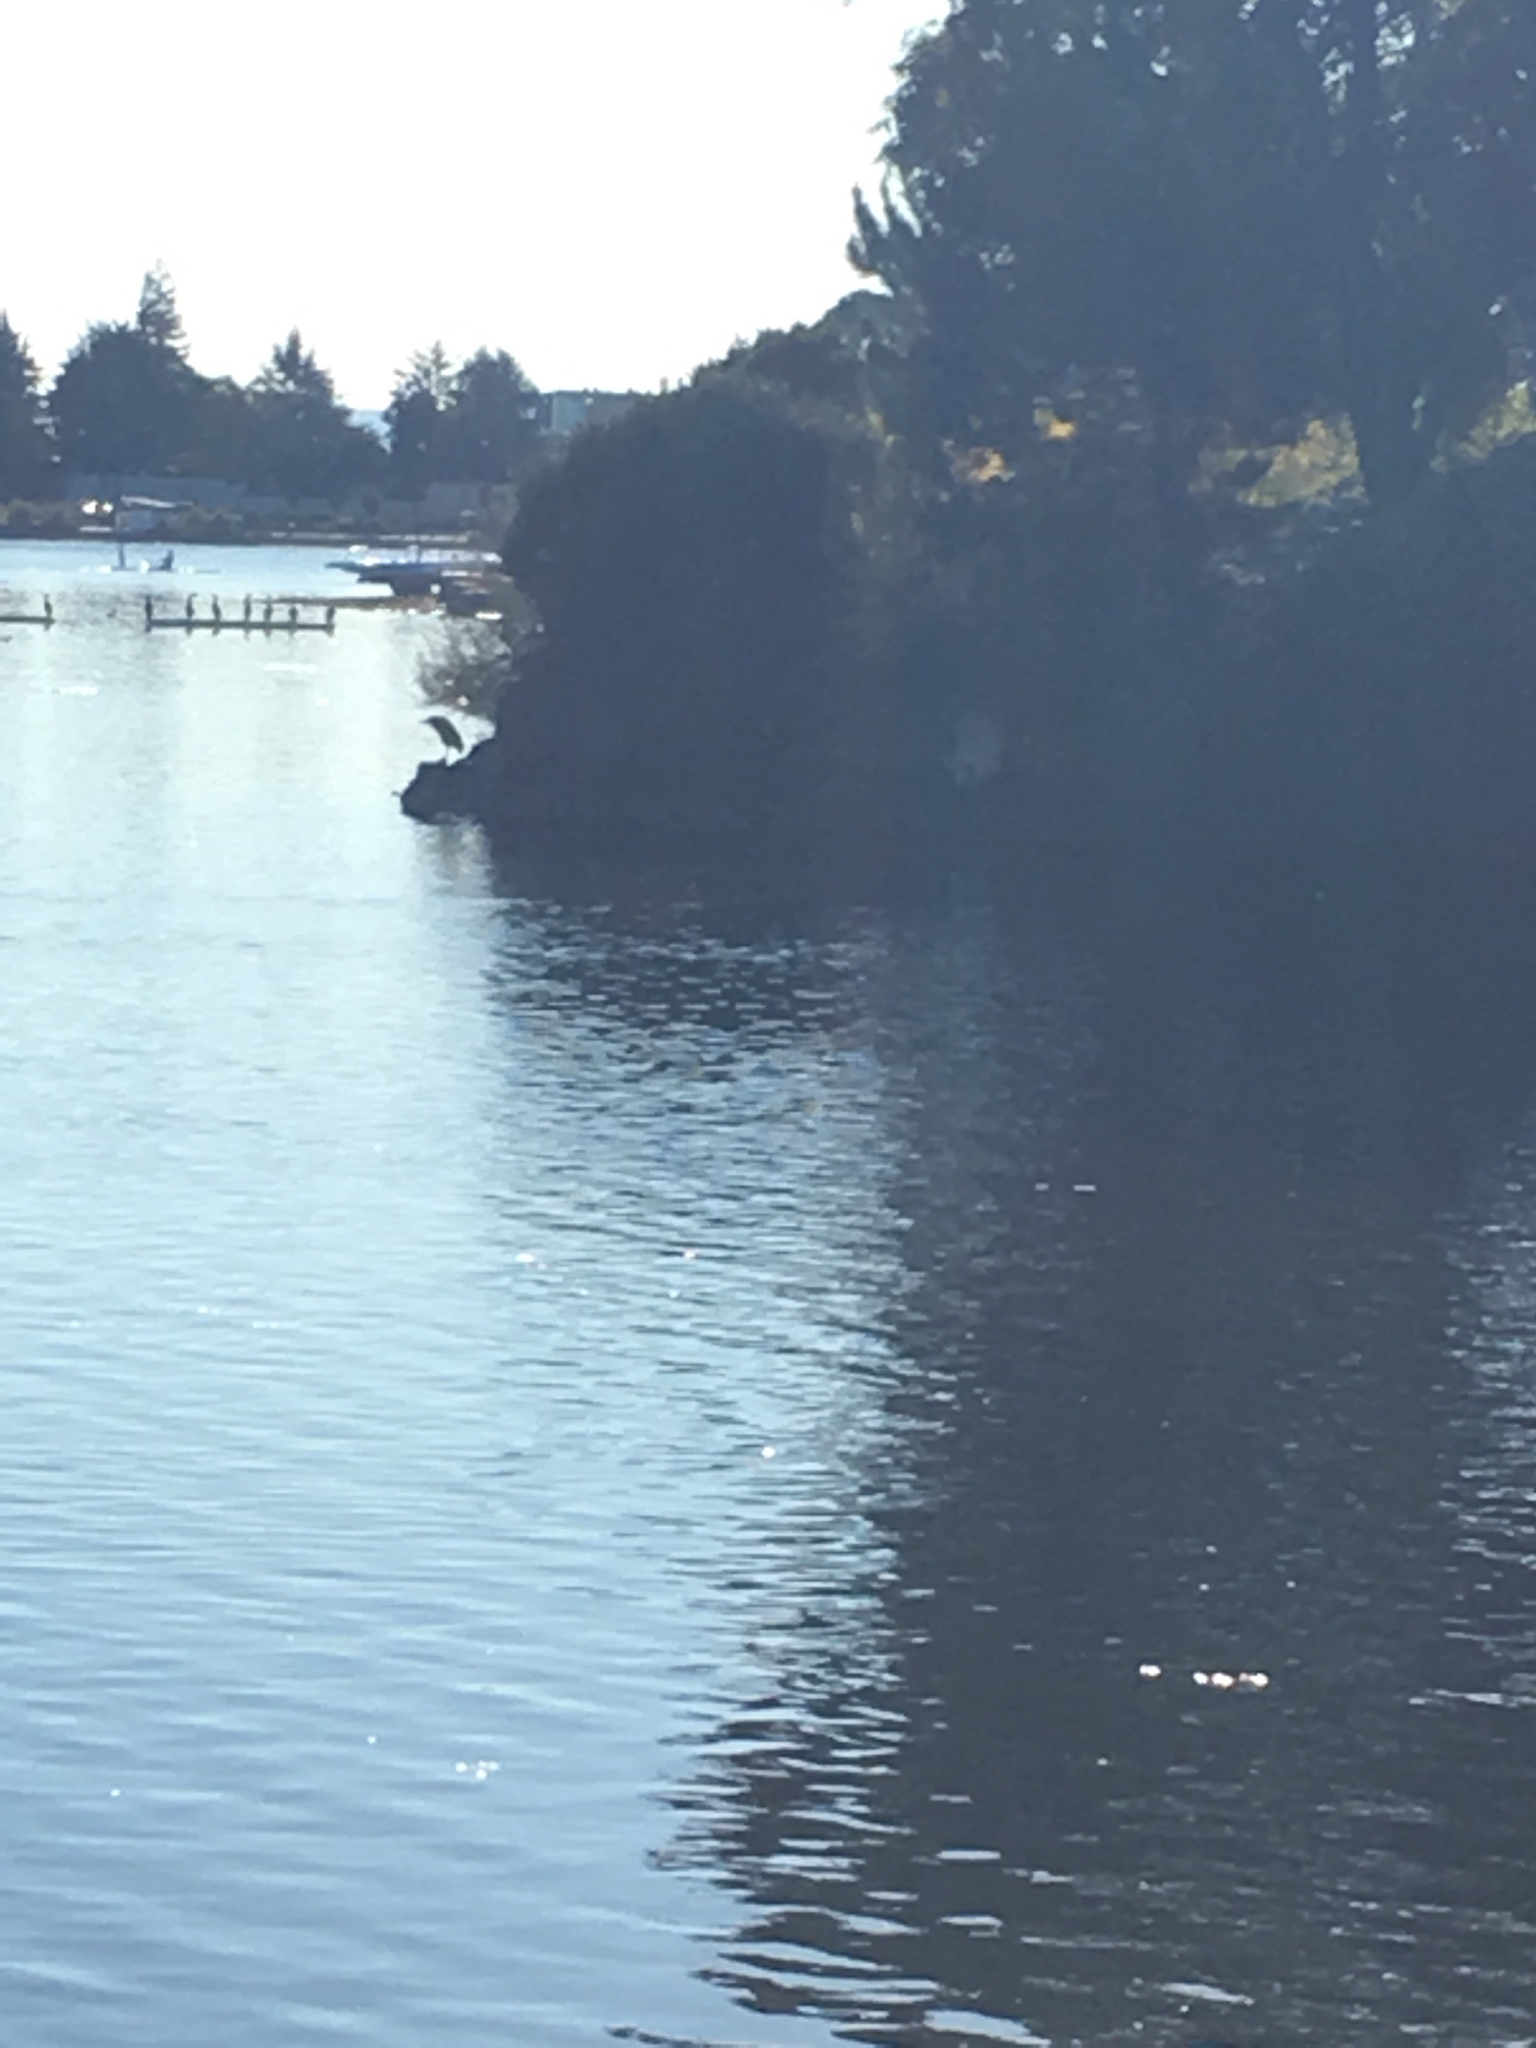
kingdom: Animalia
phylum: Chordata
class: Aves
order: Pelecaniformes
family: Ardeidae
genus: Nycticorax
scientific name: Nycticorax nycticorax
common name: Black-crowned night heron
